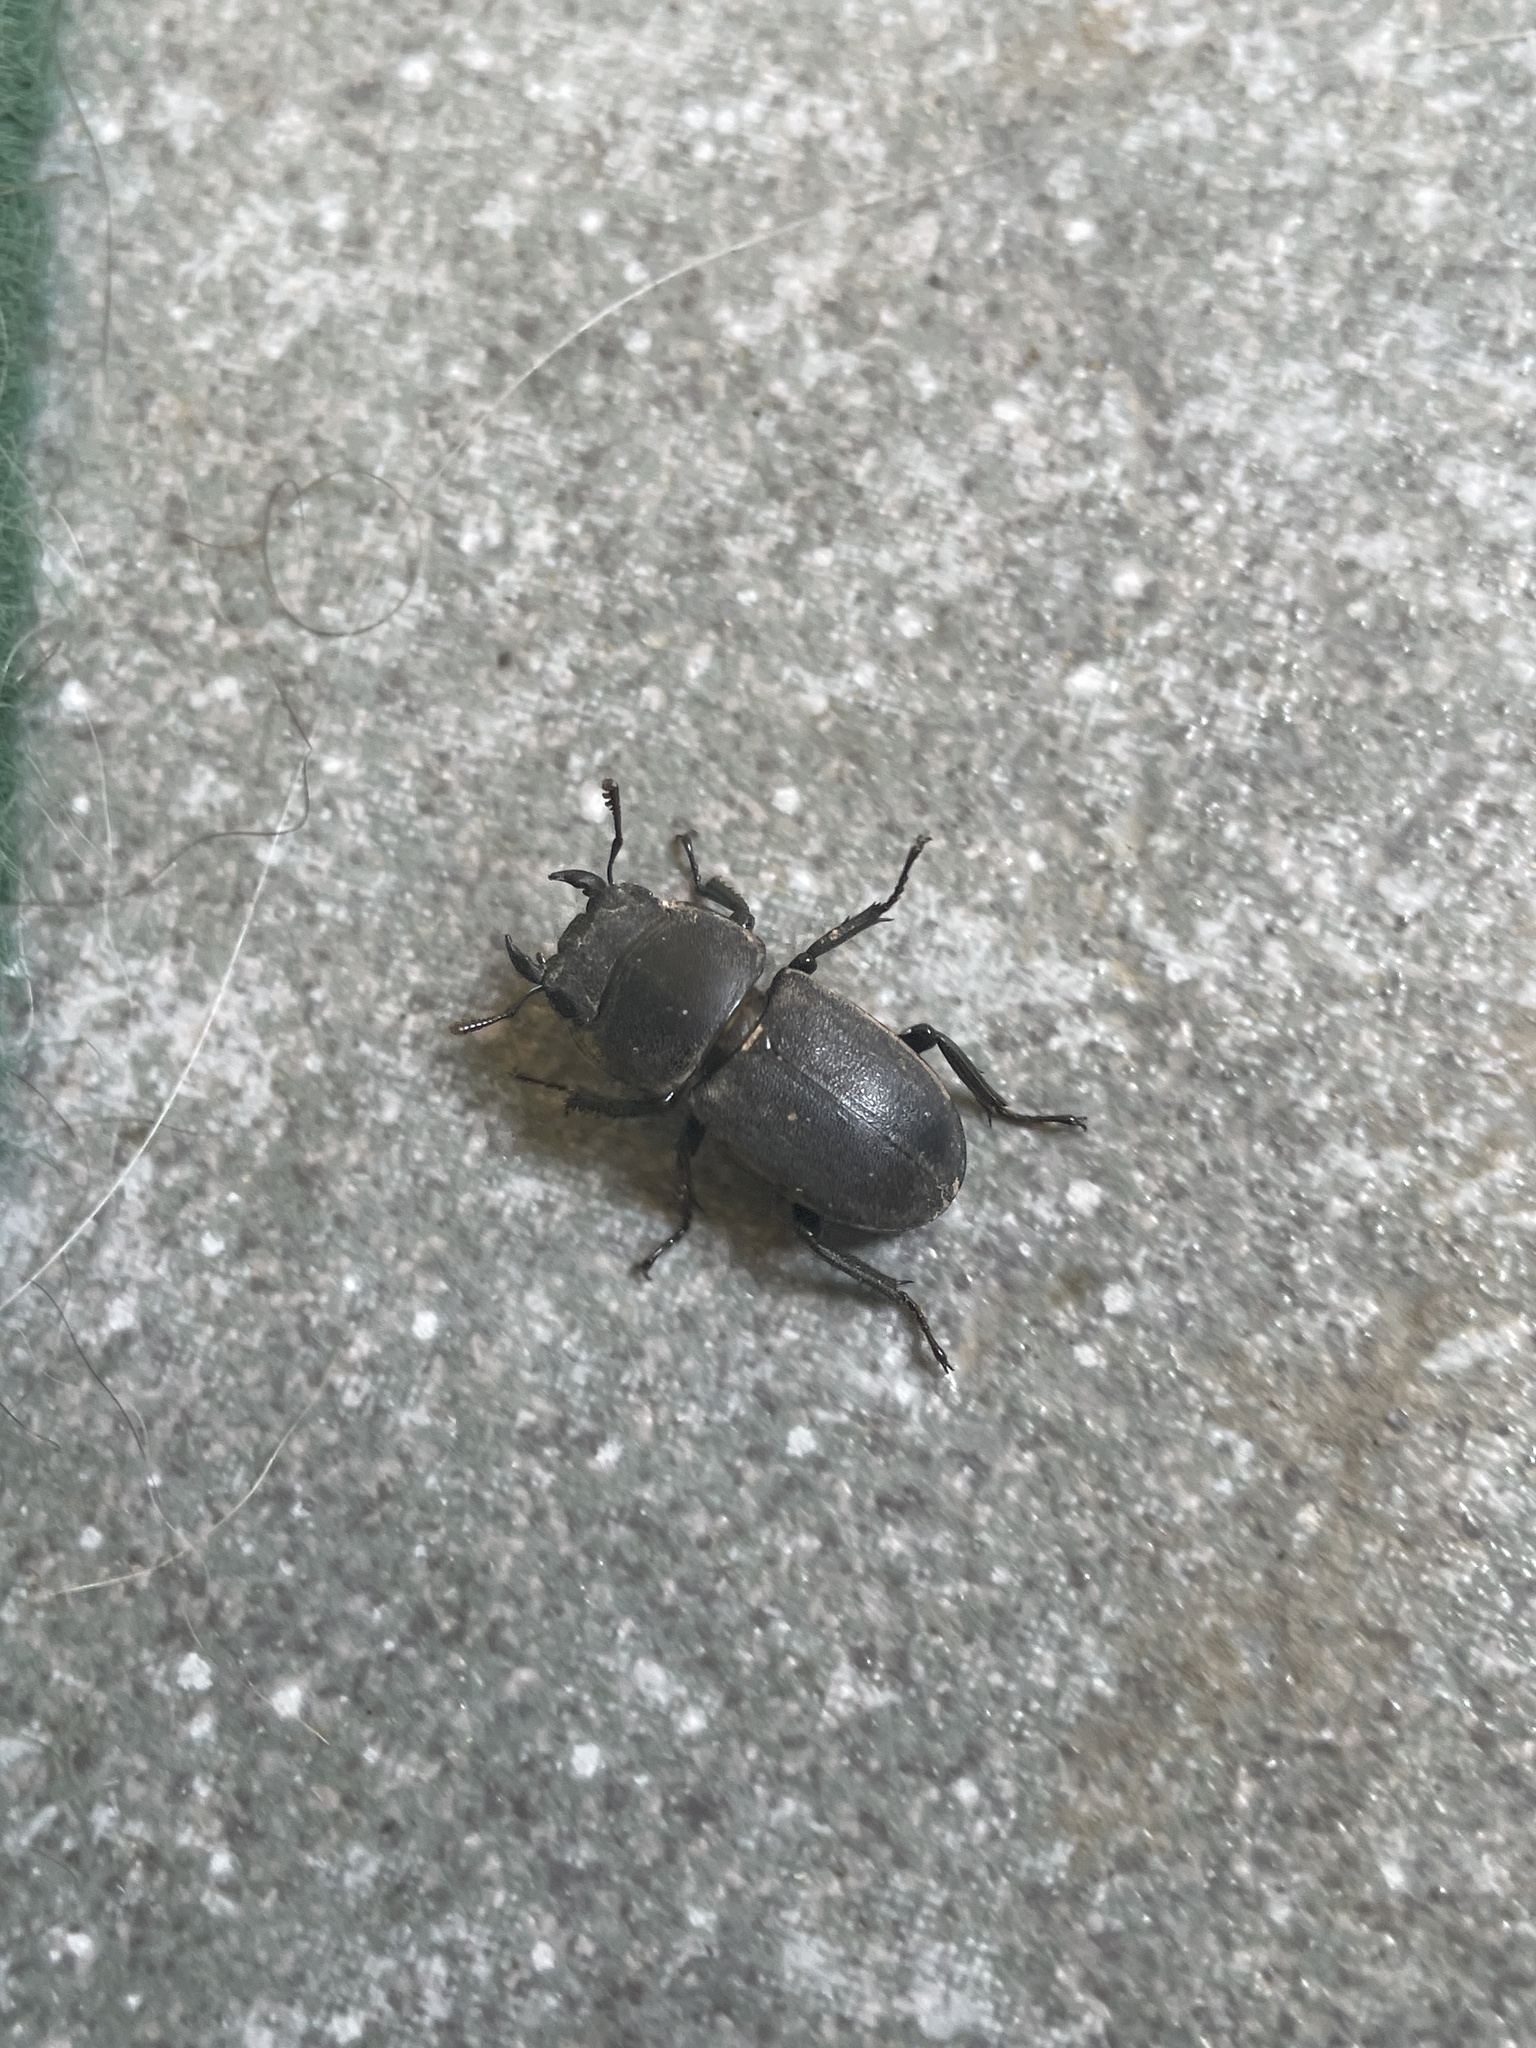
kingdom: Animalia
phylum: Arthropoda
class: Insecta
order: Coleoptera
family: Lucanidae
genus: Dorcus
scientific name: Dorcus parallelipipedus
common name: Lesser stag beetle
